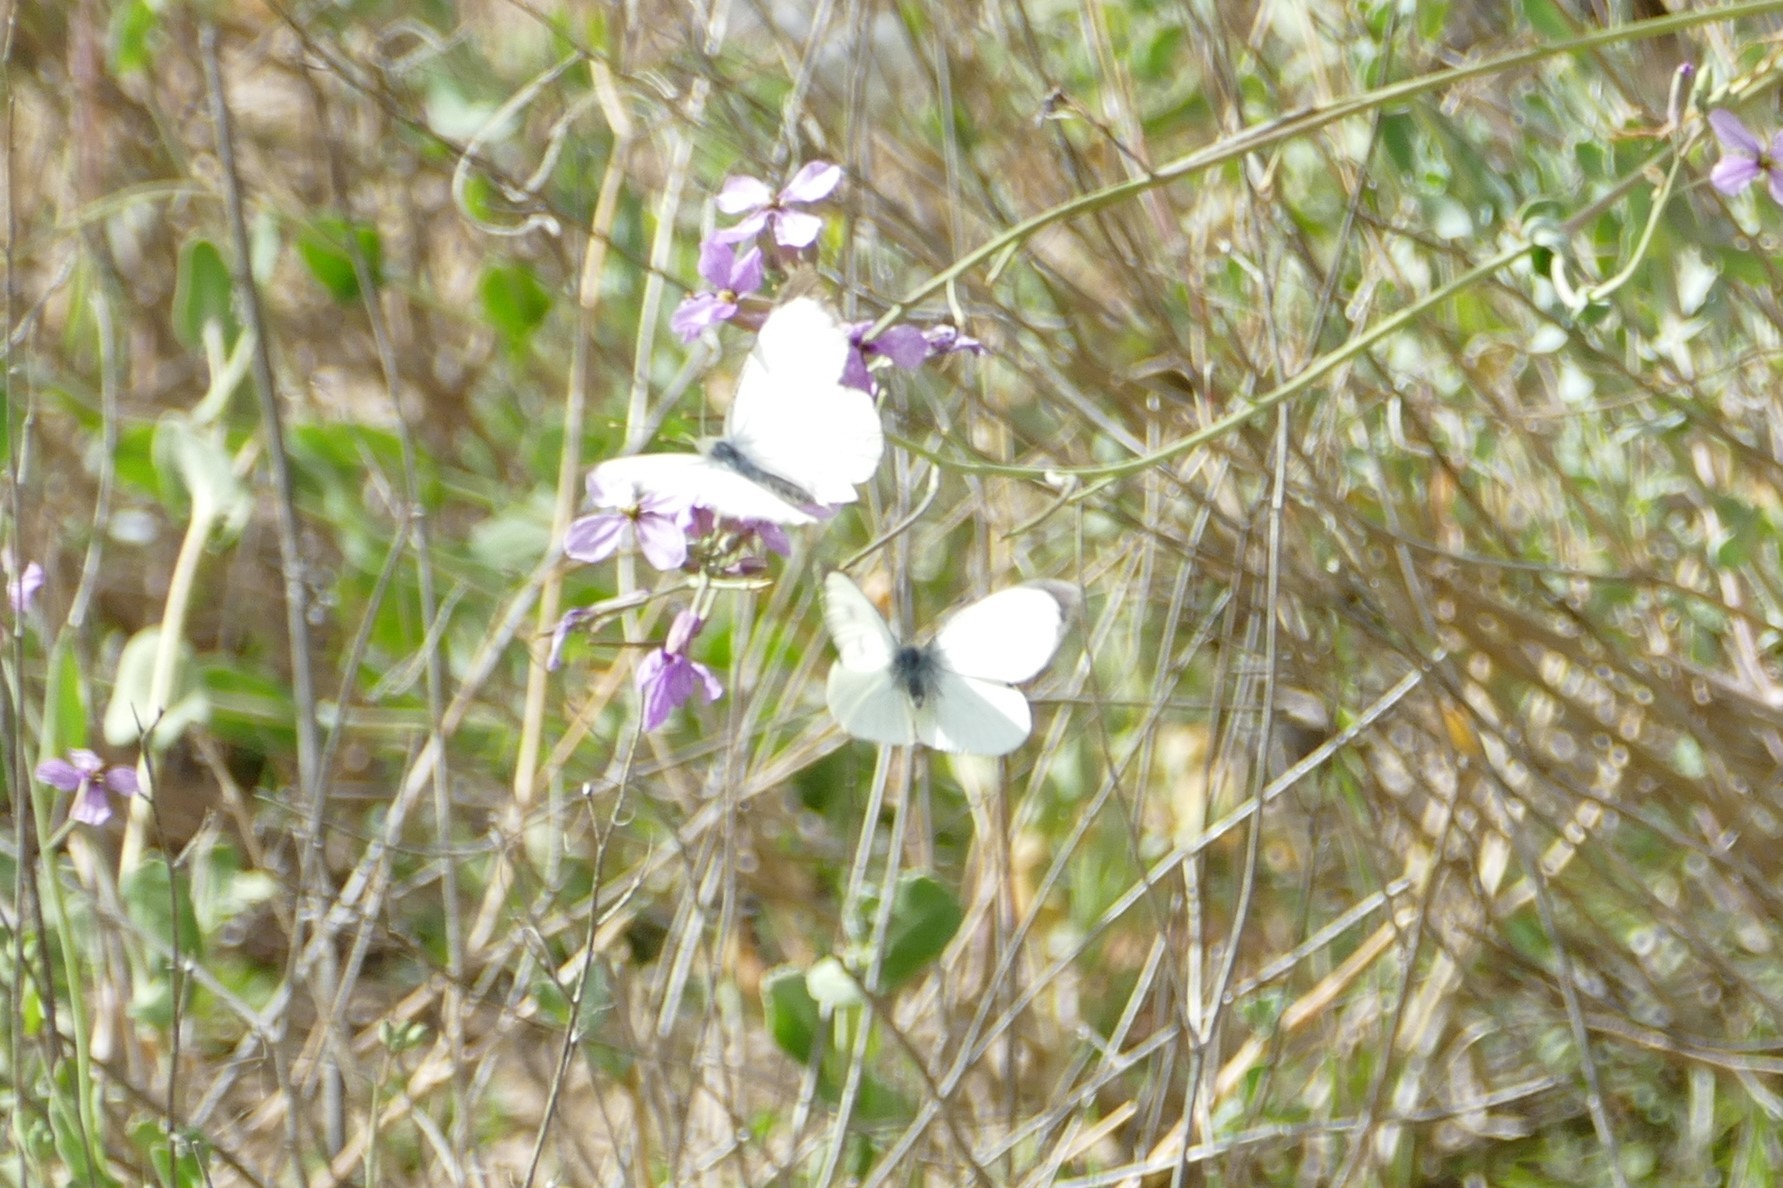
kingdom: Animalia
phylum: Arthropoda
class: Insecta
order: Lepidoptera
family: Pieridae
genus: Pieris
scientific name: Pieris brassicae
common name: Large white
